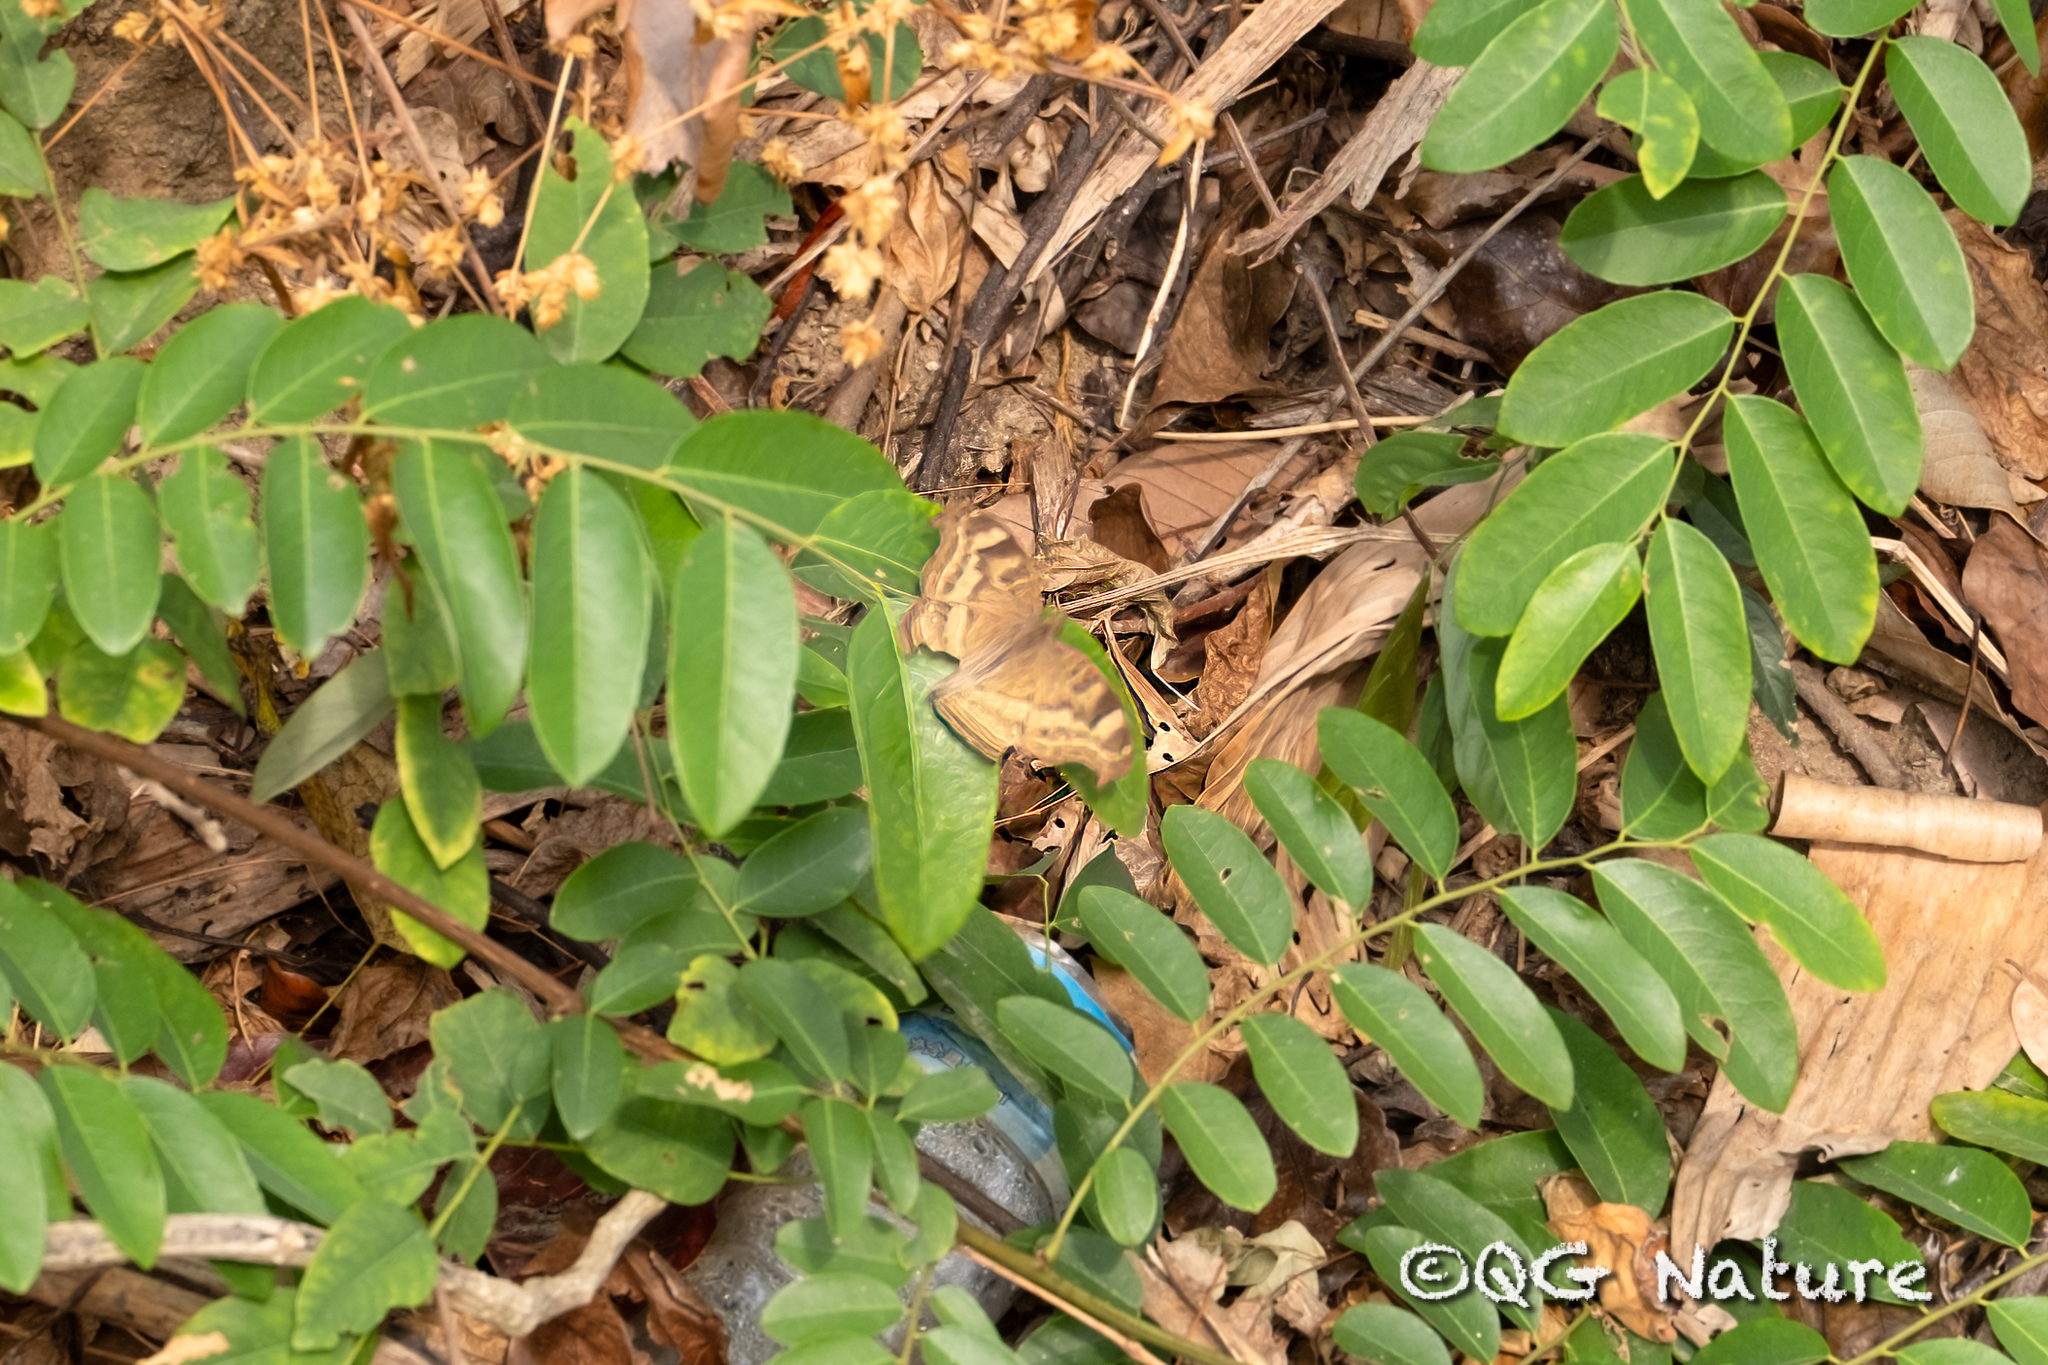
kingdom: Animalia
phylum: Arthropoda
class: Insecta
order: Lepidoptera
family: Nymphalidae
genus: Junonia
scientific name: Junonia iphita
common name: Chocolate pansy
